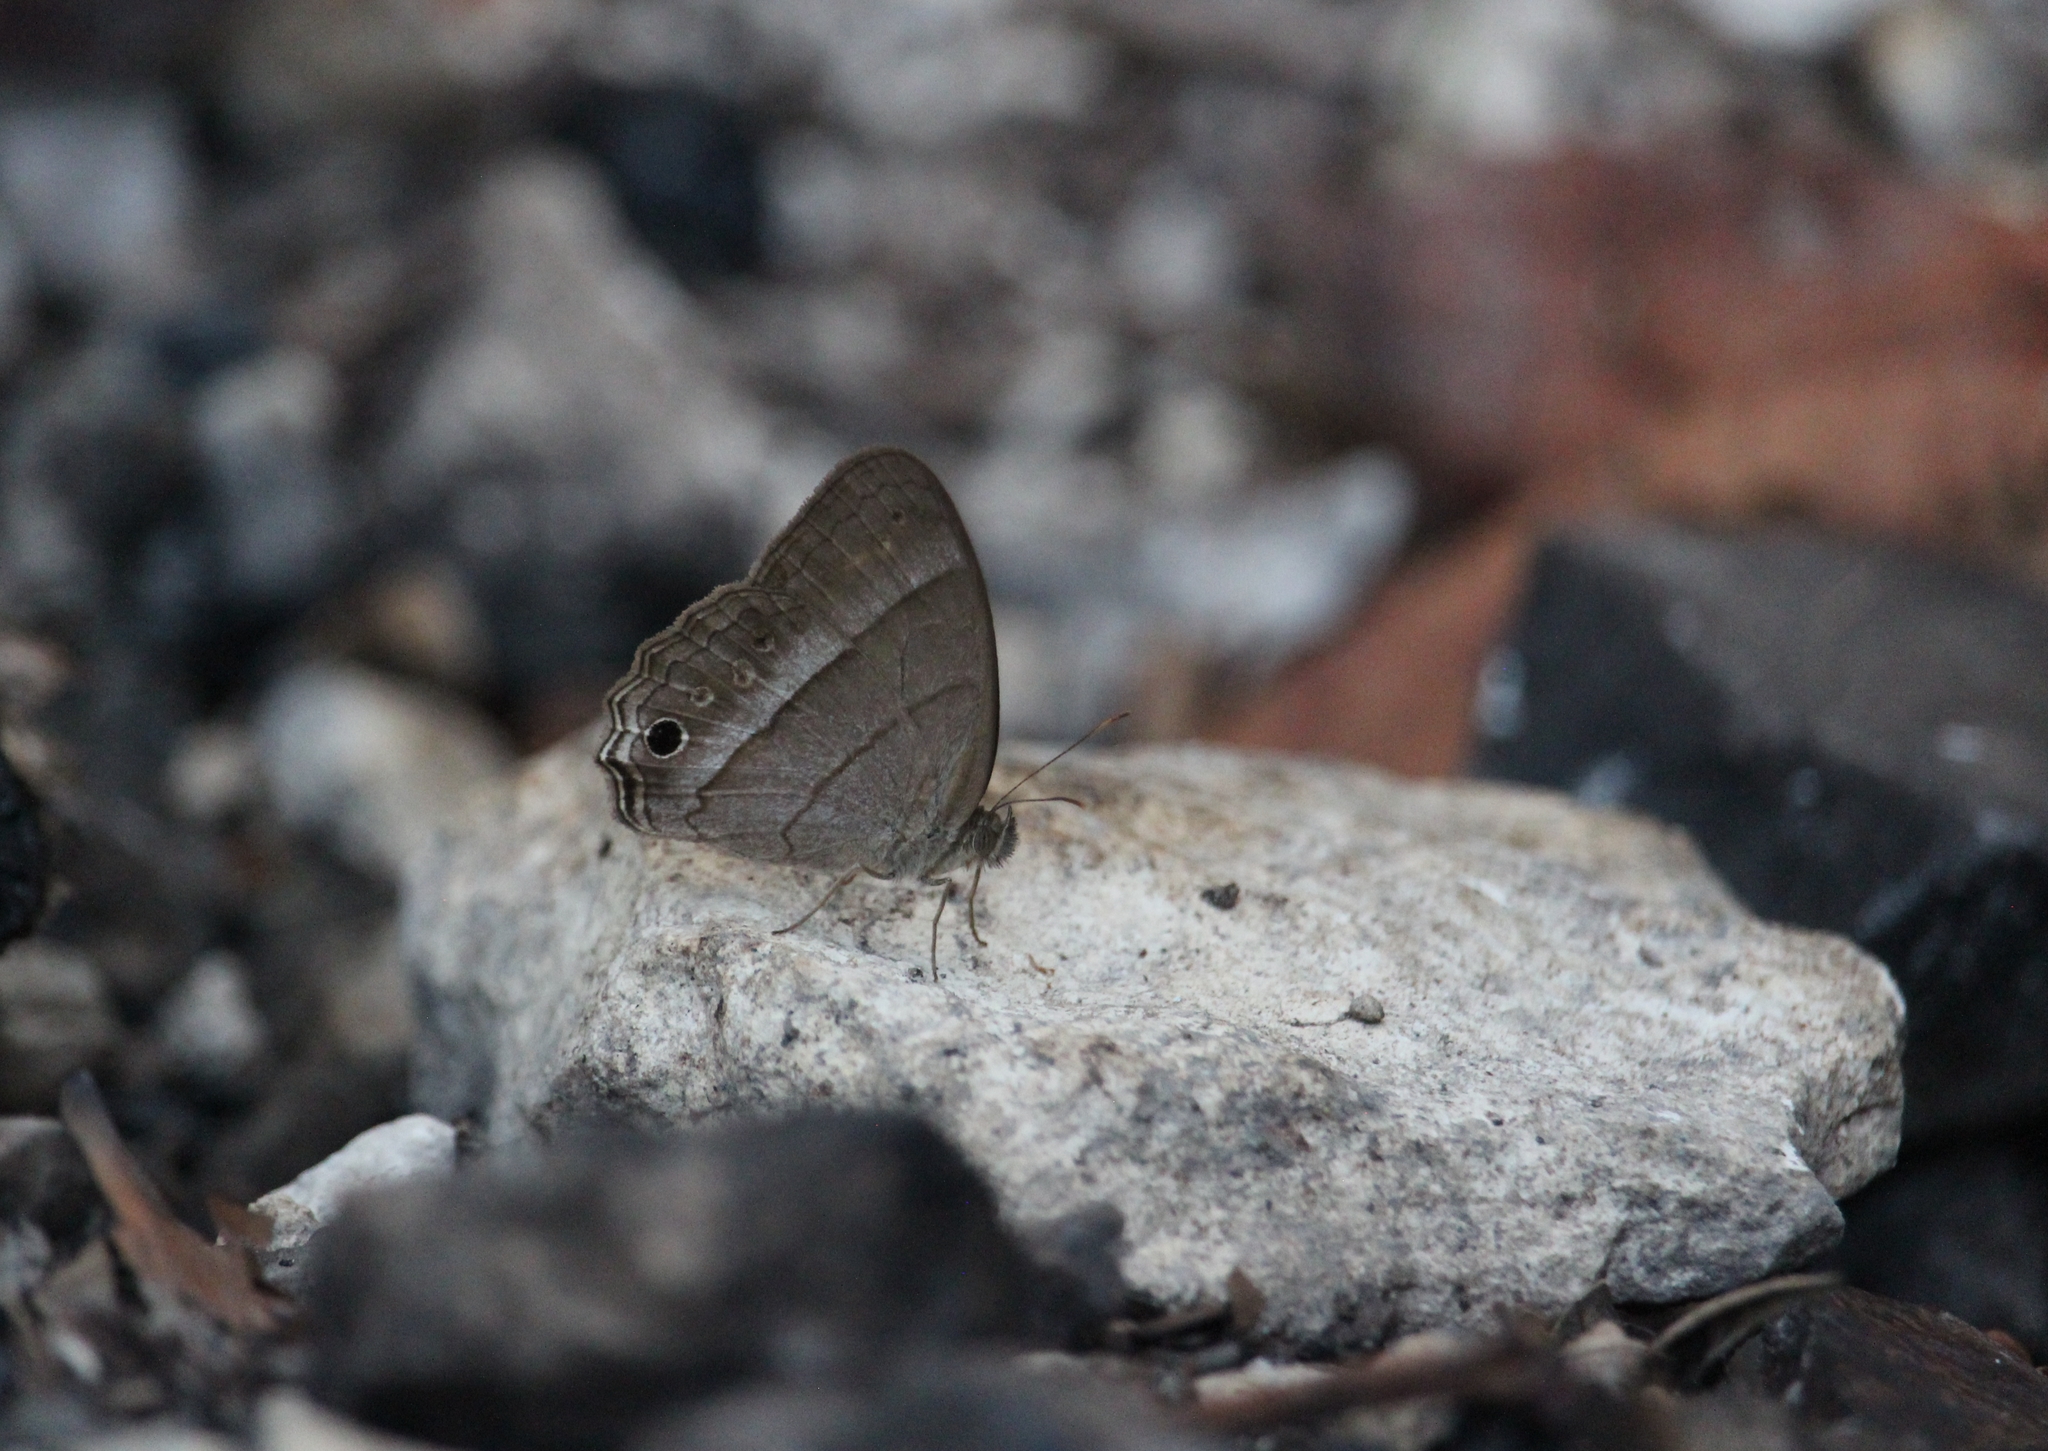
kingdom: Animalia
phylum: Arthropoda
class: Insecta
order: Lepidoptera
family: Nymphalidae
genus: Vareuptychia
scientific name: Vareuptychia similis
